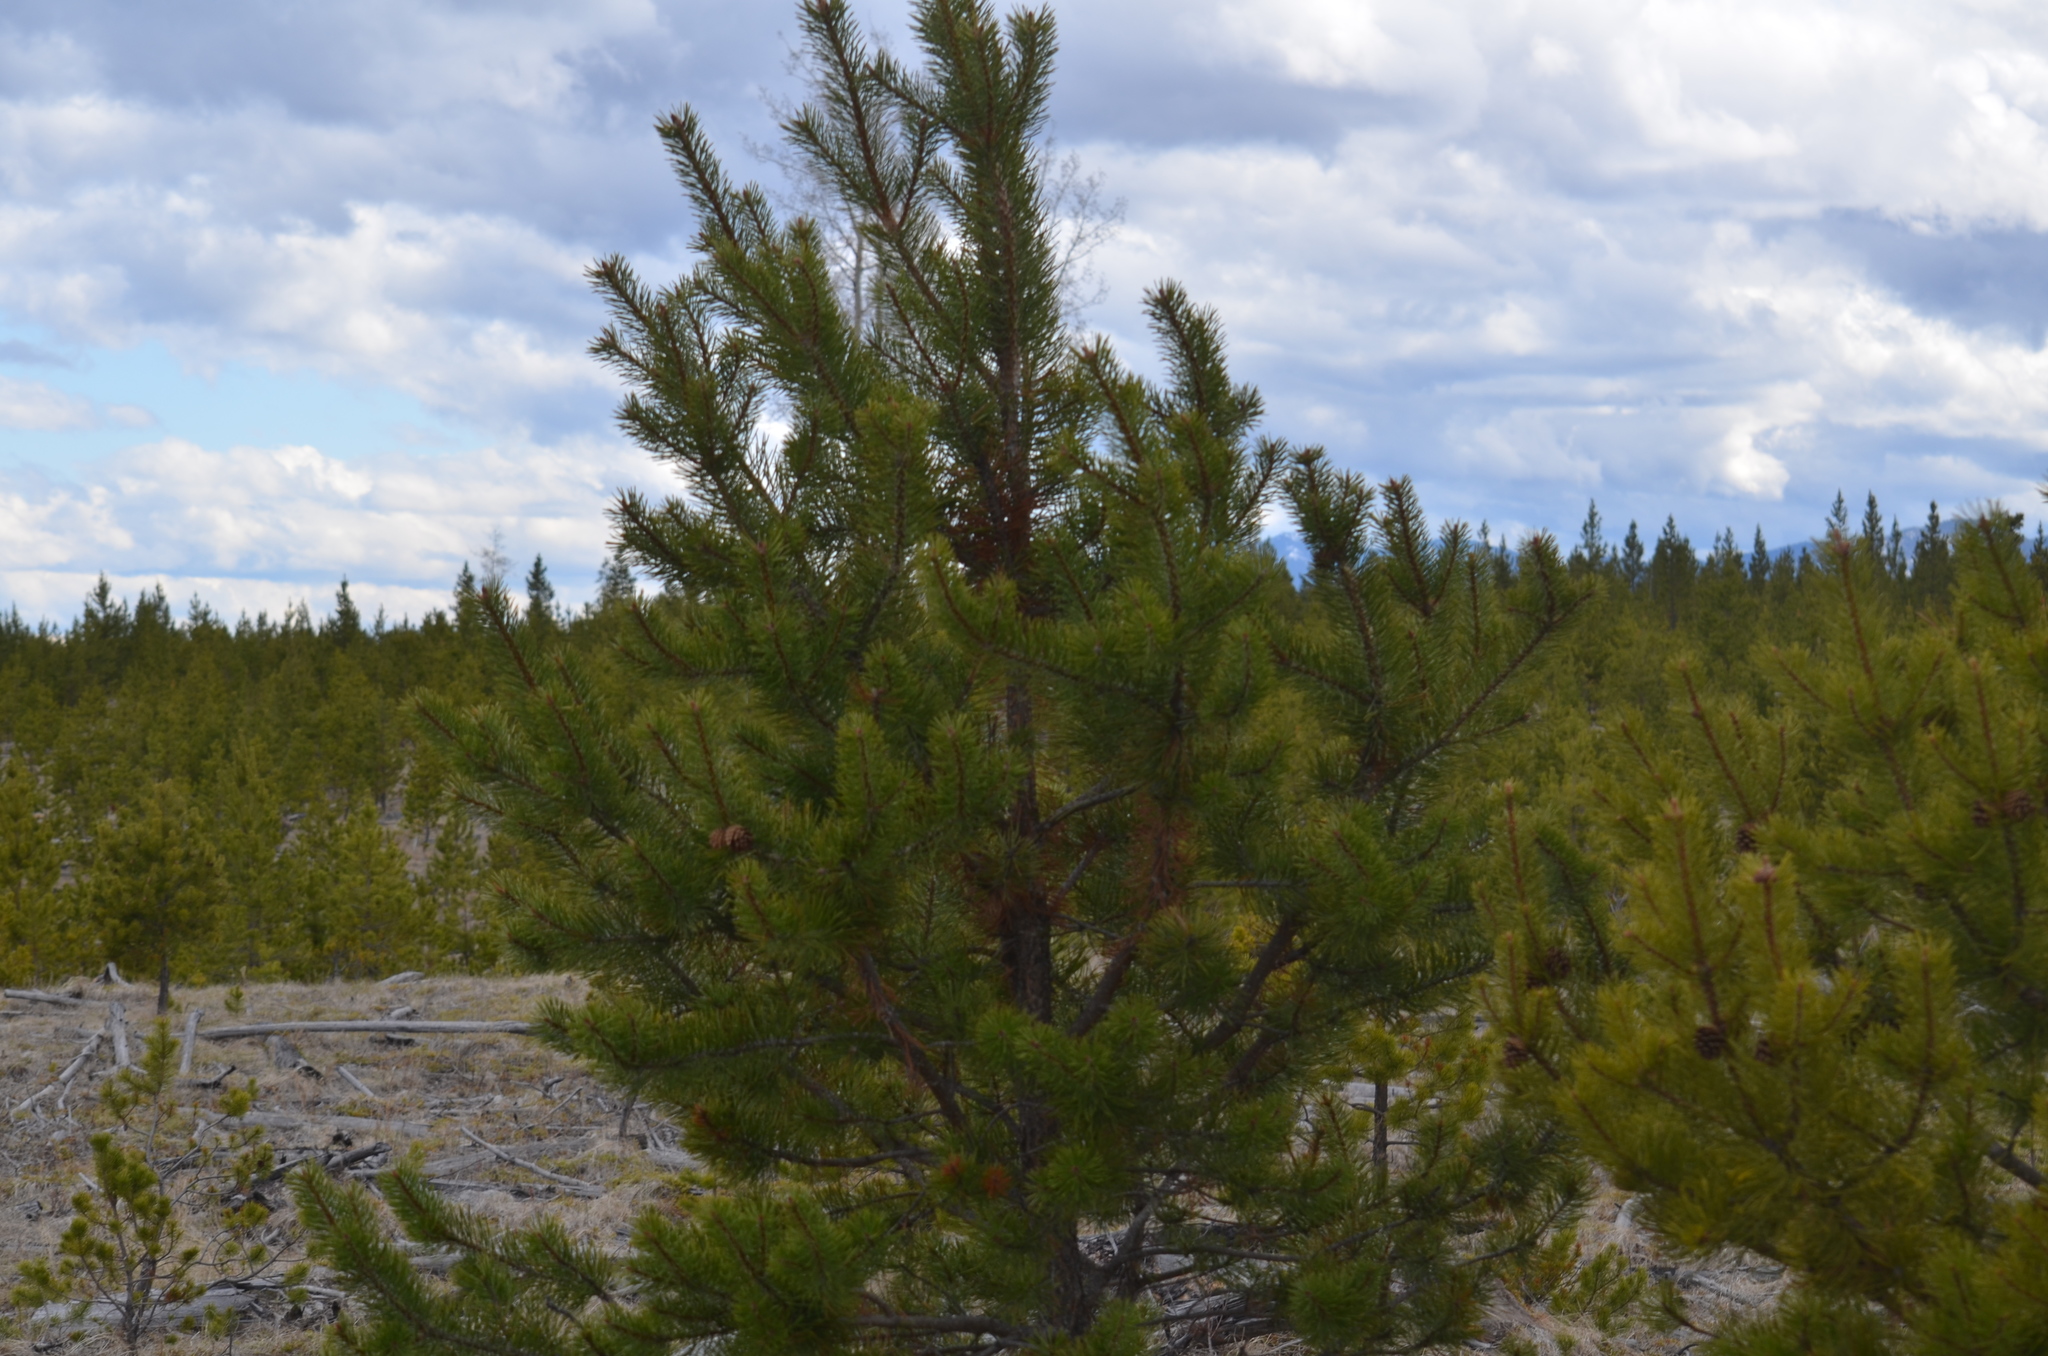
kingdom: Plantae
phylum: Tracheophyta
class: Pinopsida
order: Pinales
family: Pinaceae
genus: Pinus
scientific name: Pinus contorta
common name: Lodgepole pine
